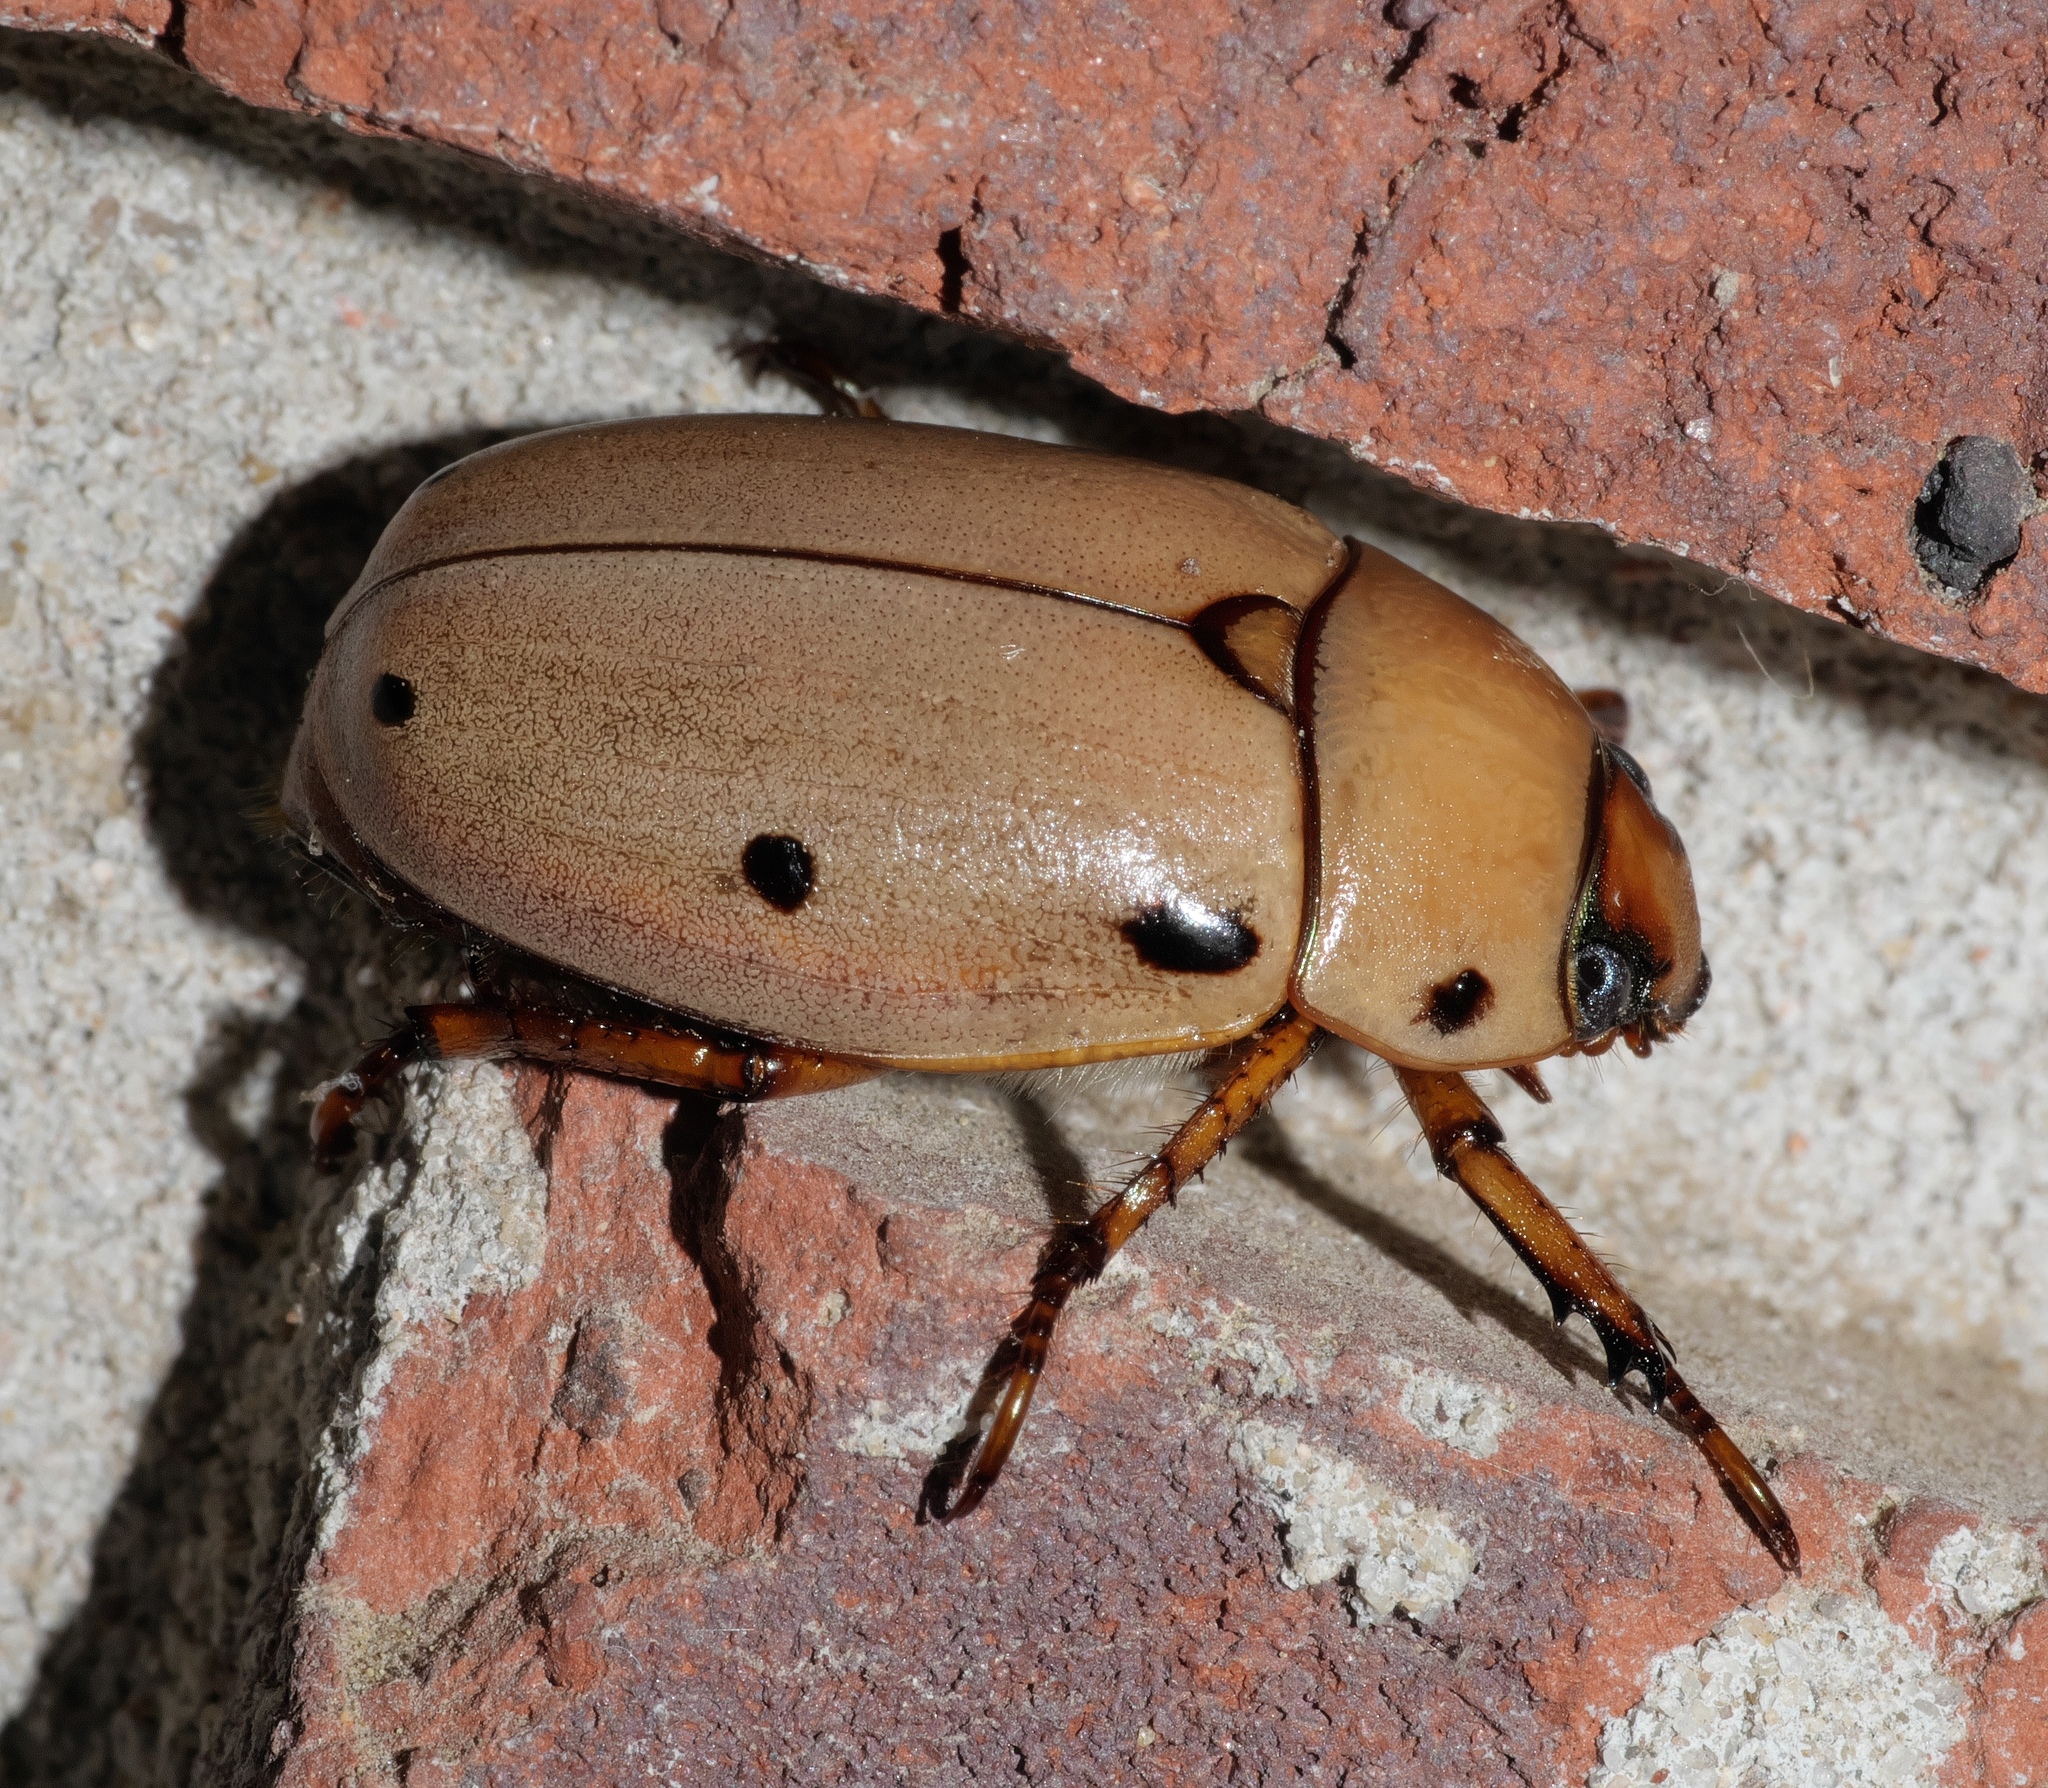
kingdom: Animalia
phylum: Arthropoda
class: Insecta
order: Coleoptera
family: Scarabaeidae
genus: Pelidnota
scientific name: Pelidnota punctata
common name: Grapevine beetle
